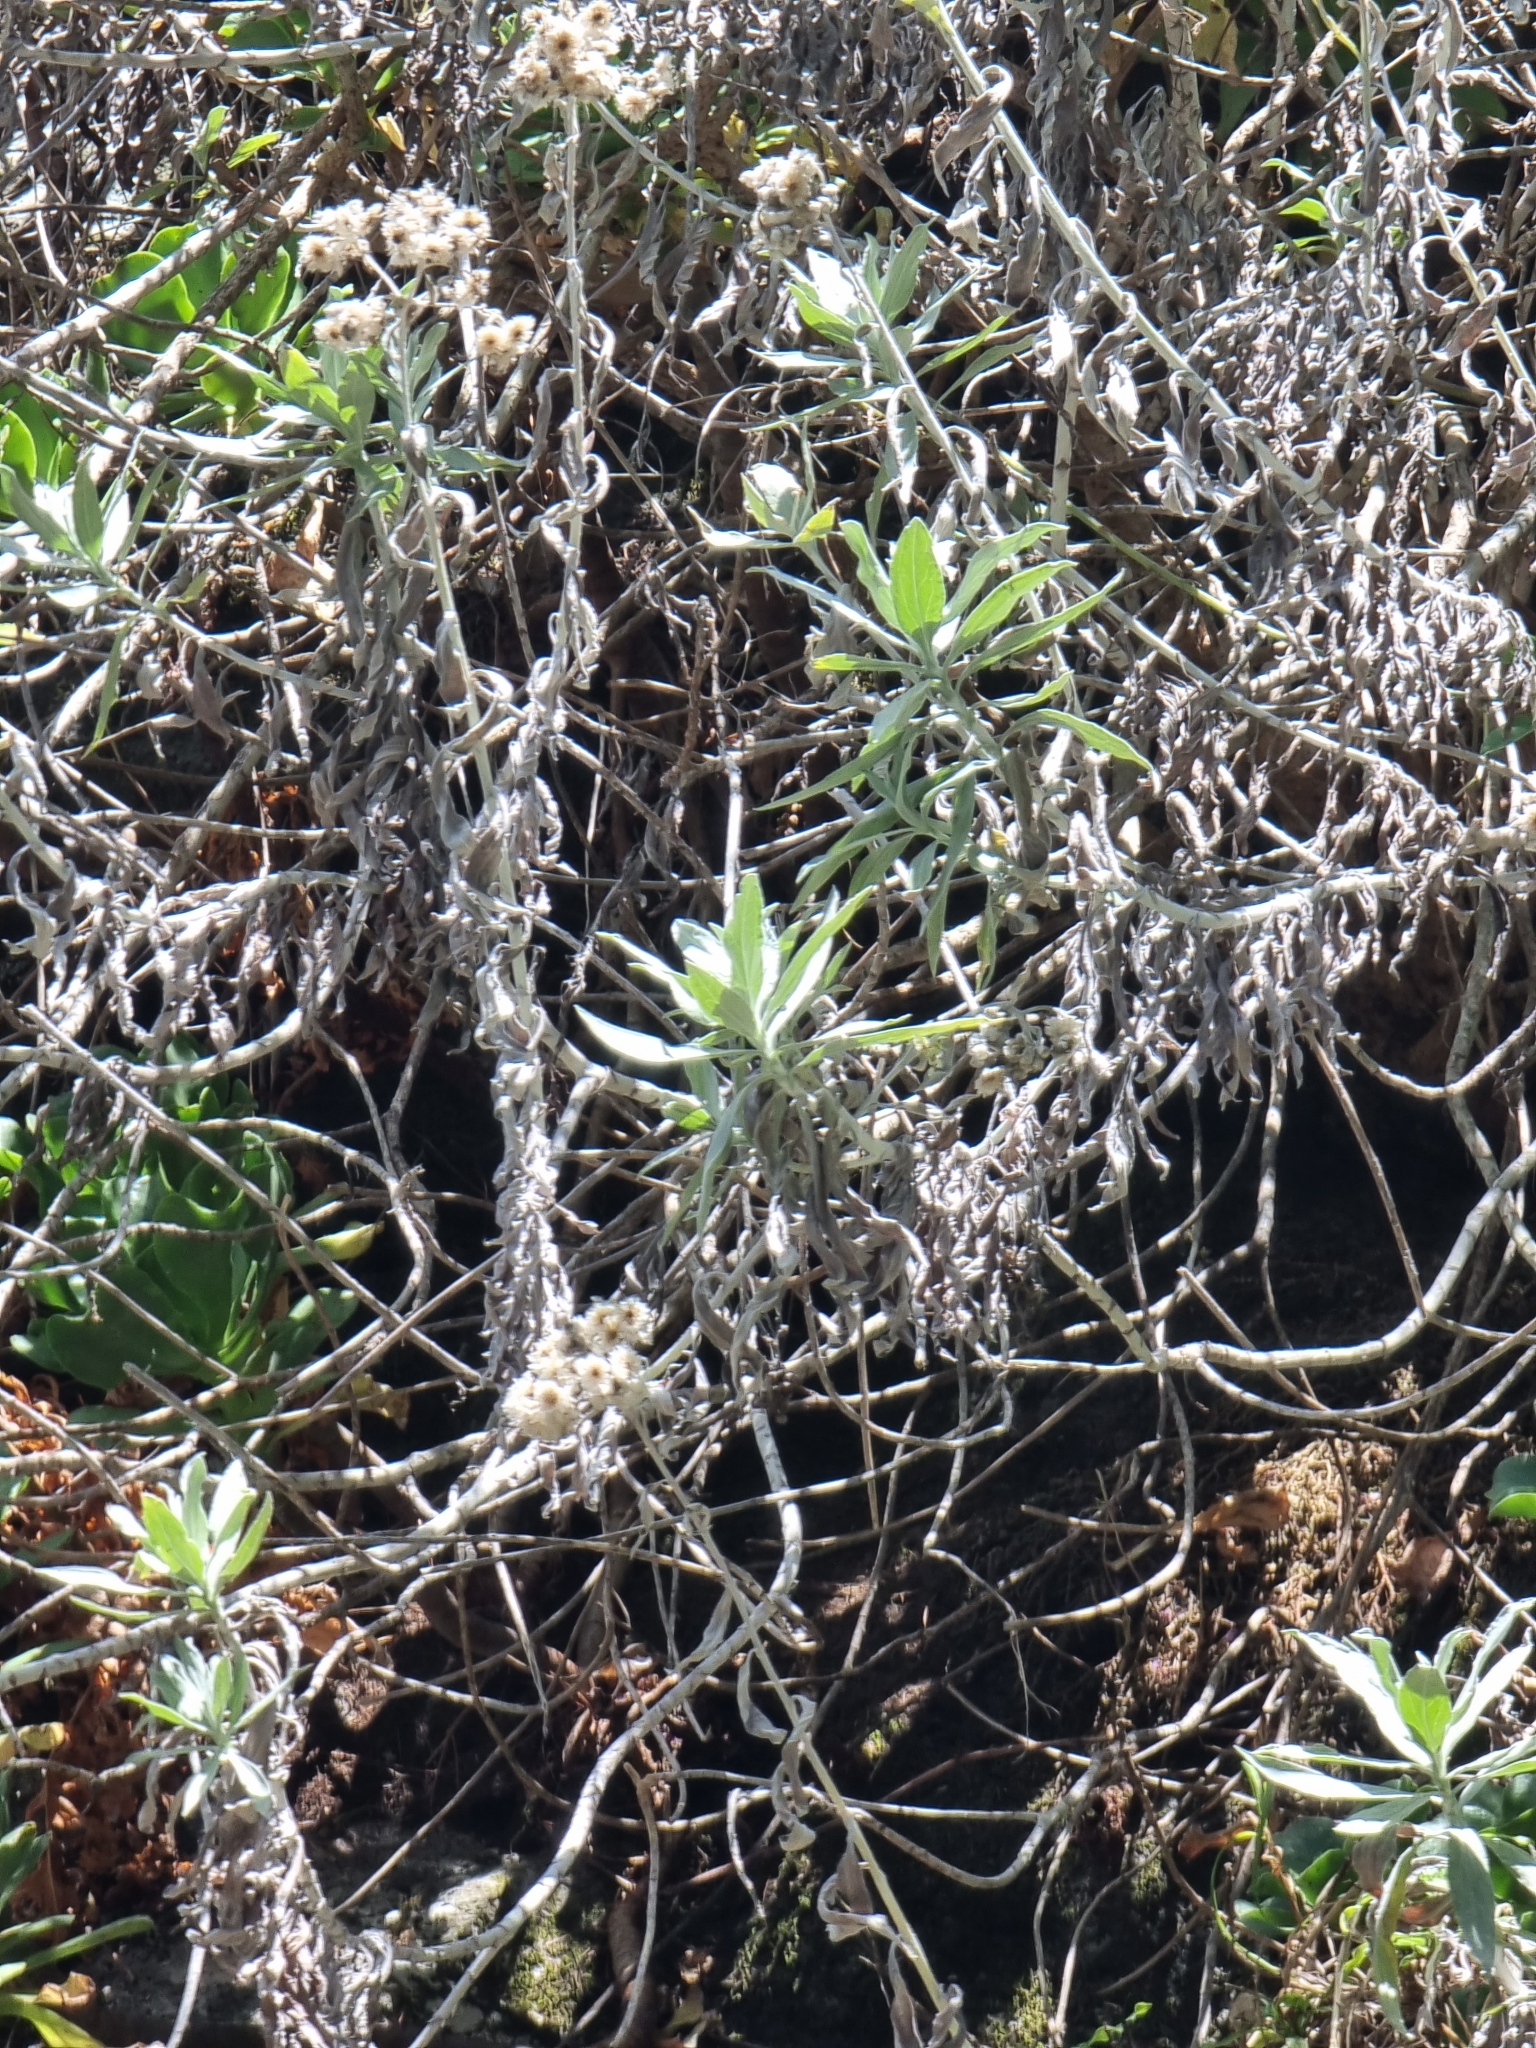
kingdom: Plantae
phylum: Tracheophyta
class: Magnoliopsida
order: Asterales
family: Asteraceae
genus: Helichrysum
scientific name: Helichrysum melaleucum
